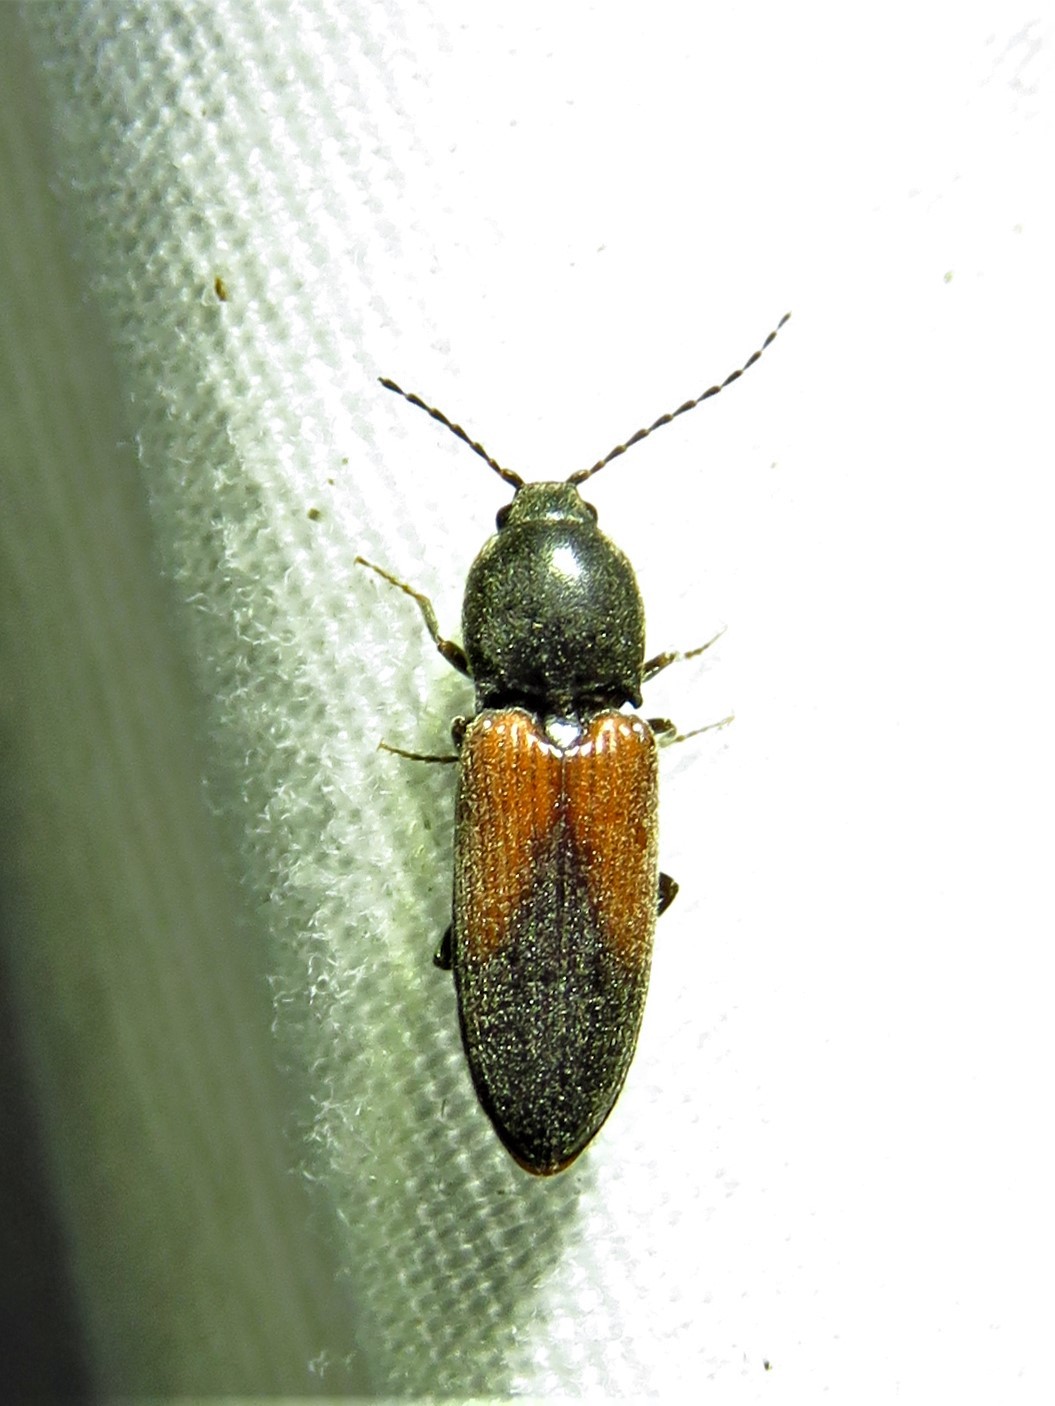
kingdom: Animalia
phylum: Arthropoda
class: Insecta
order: Coleoptera
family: Elateridae
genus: Cardiophorus
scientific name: Cardiophorus
